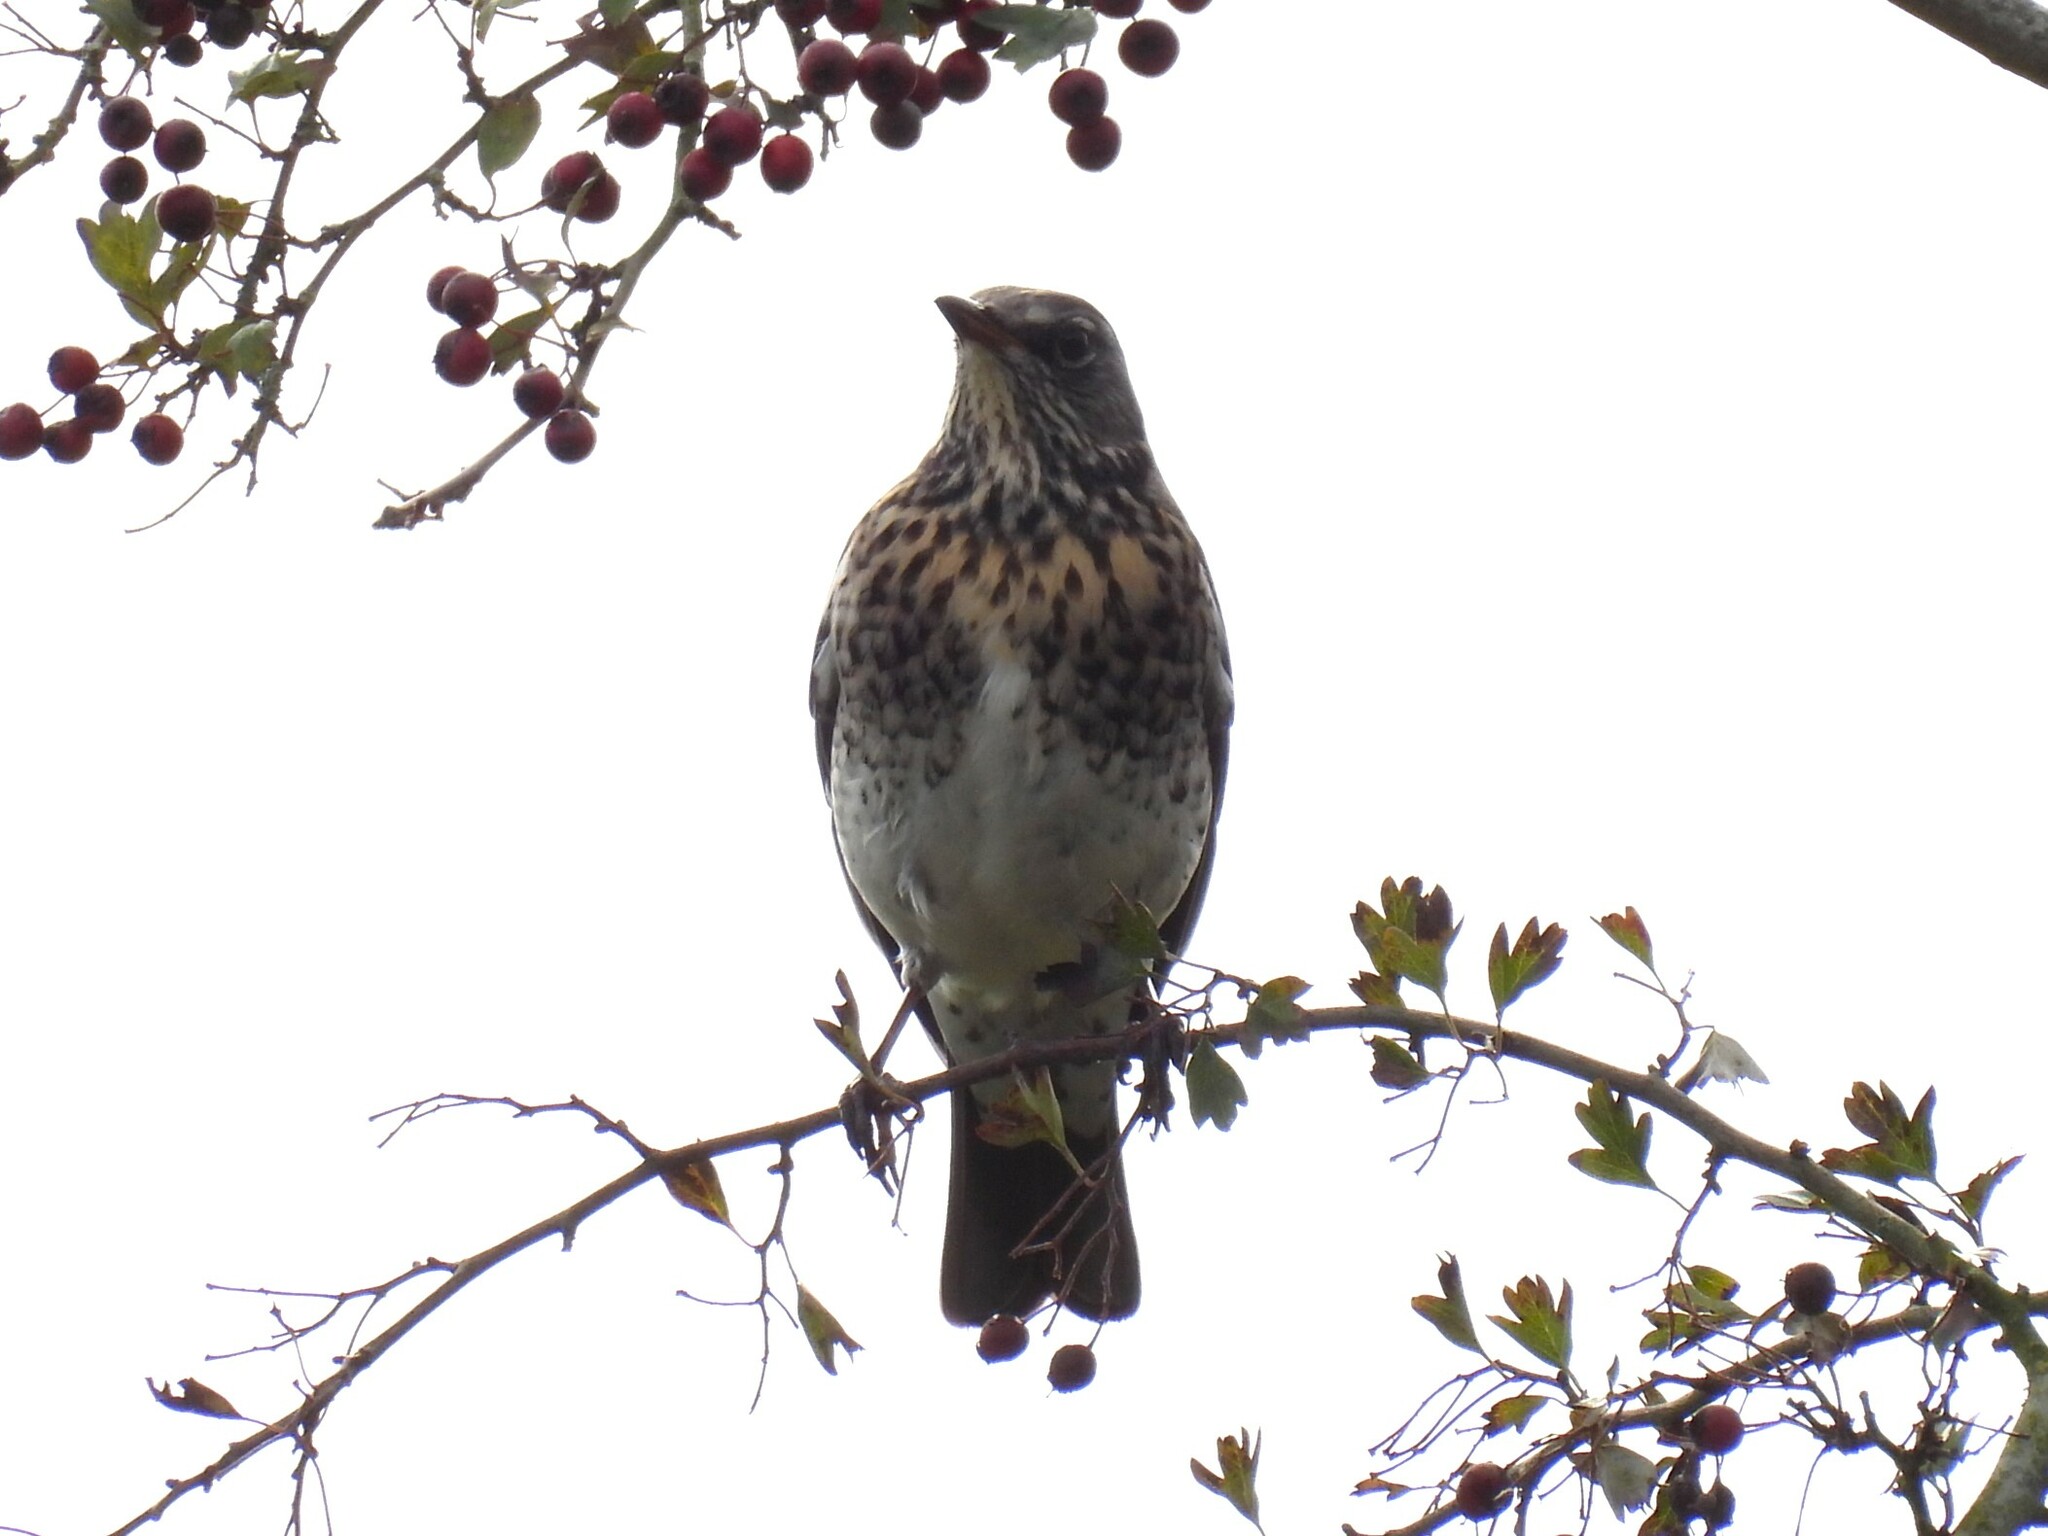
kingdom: Animalia
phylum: Chordata
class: Aves
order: Passeriformes
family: Turdidae
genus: Turdus
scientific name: Turdus pilaris
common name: Fieldfare
